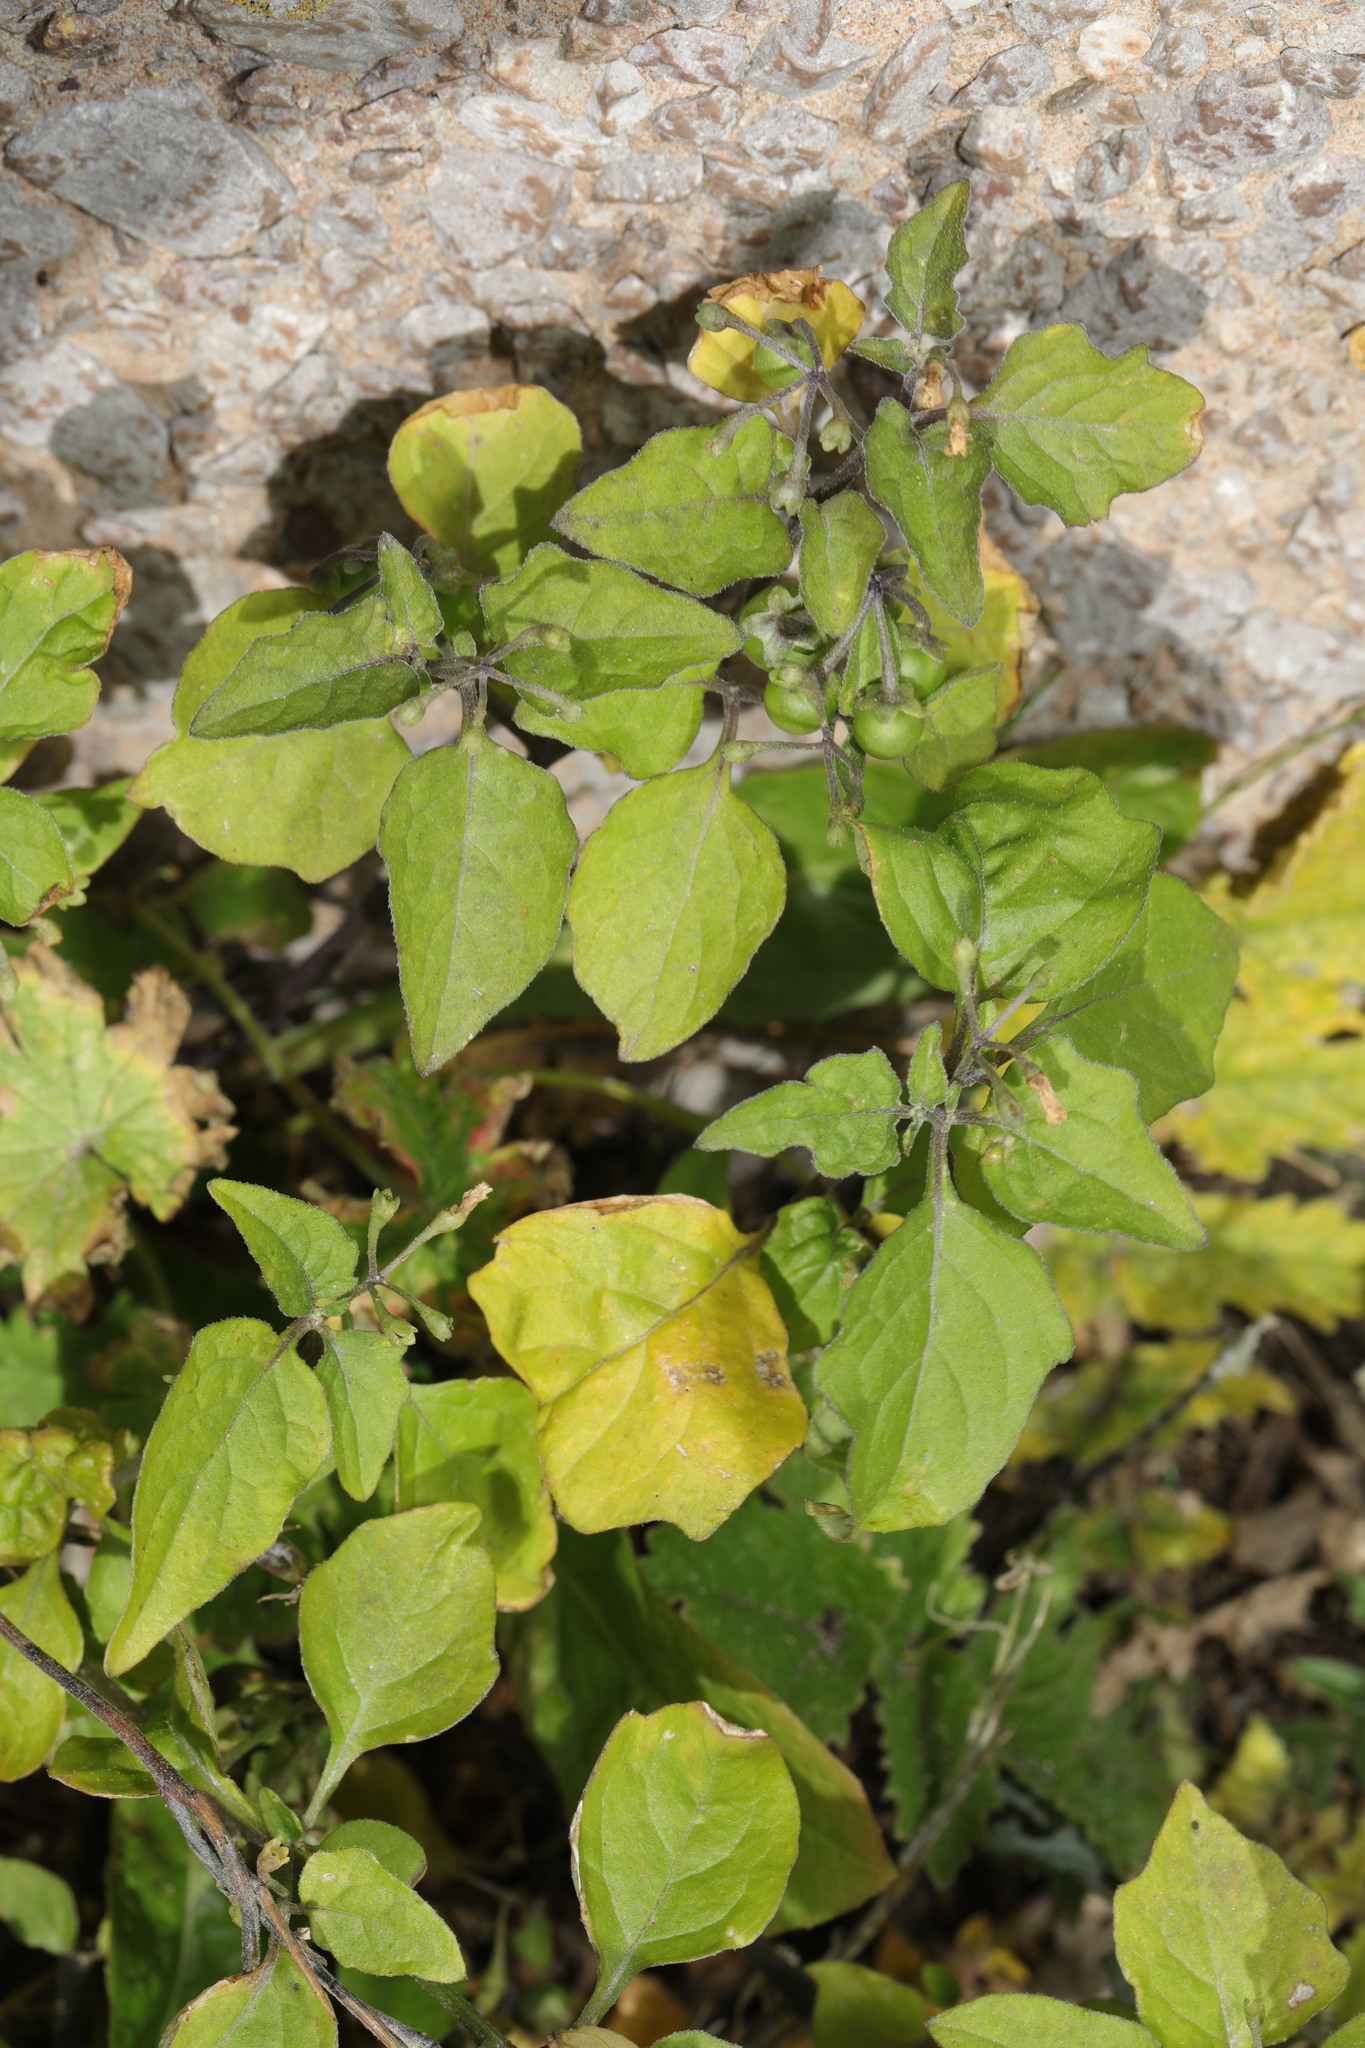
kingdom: Plantae
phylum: Tracheophyta
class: Magnoliopsida
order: Solanales
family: Solanaceae
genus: Solanum
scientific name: Solanum nigrum
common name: Black nightshade
